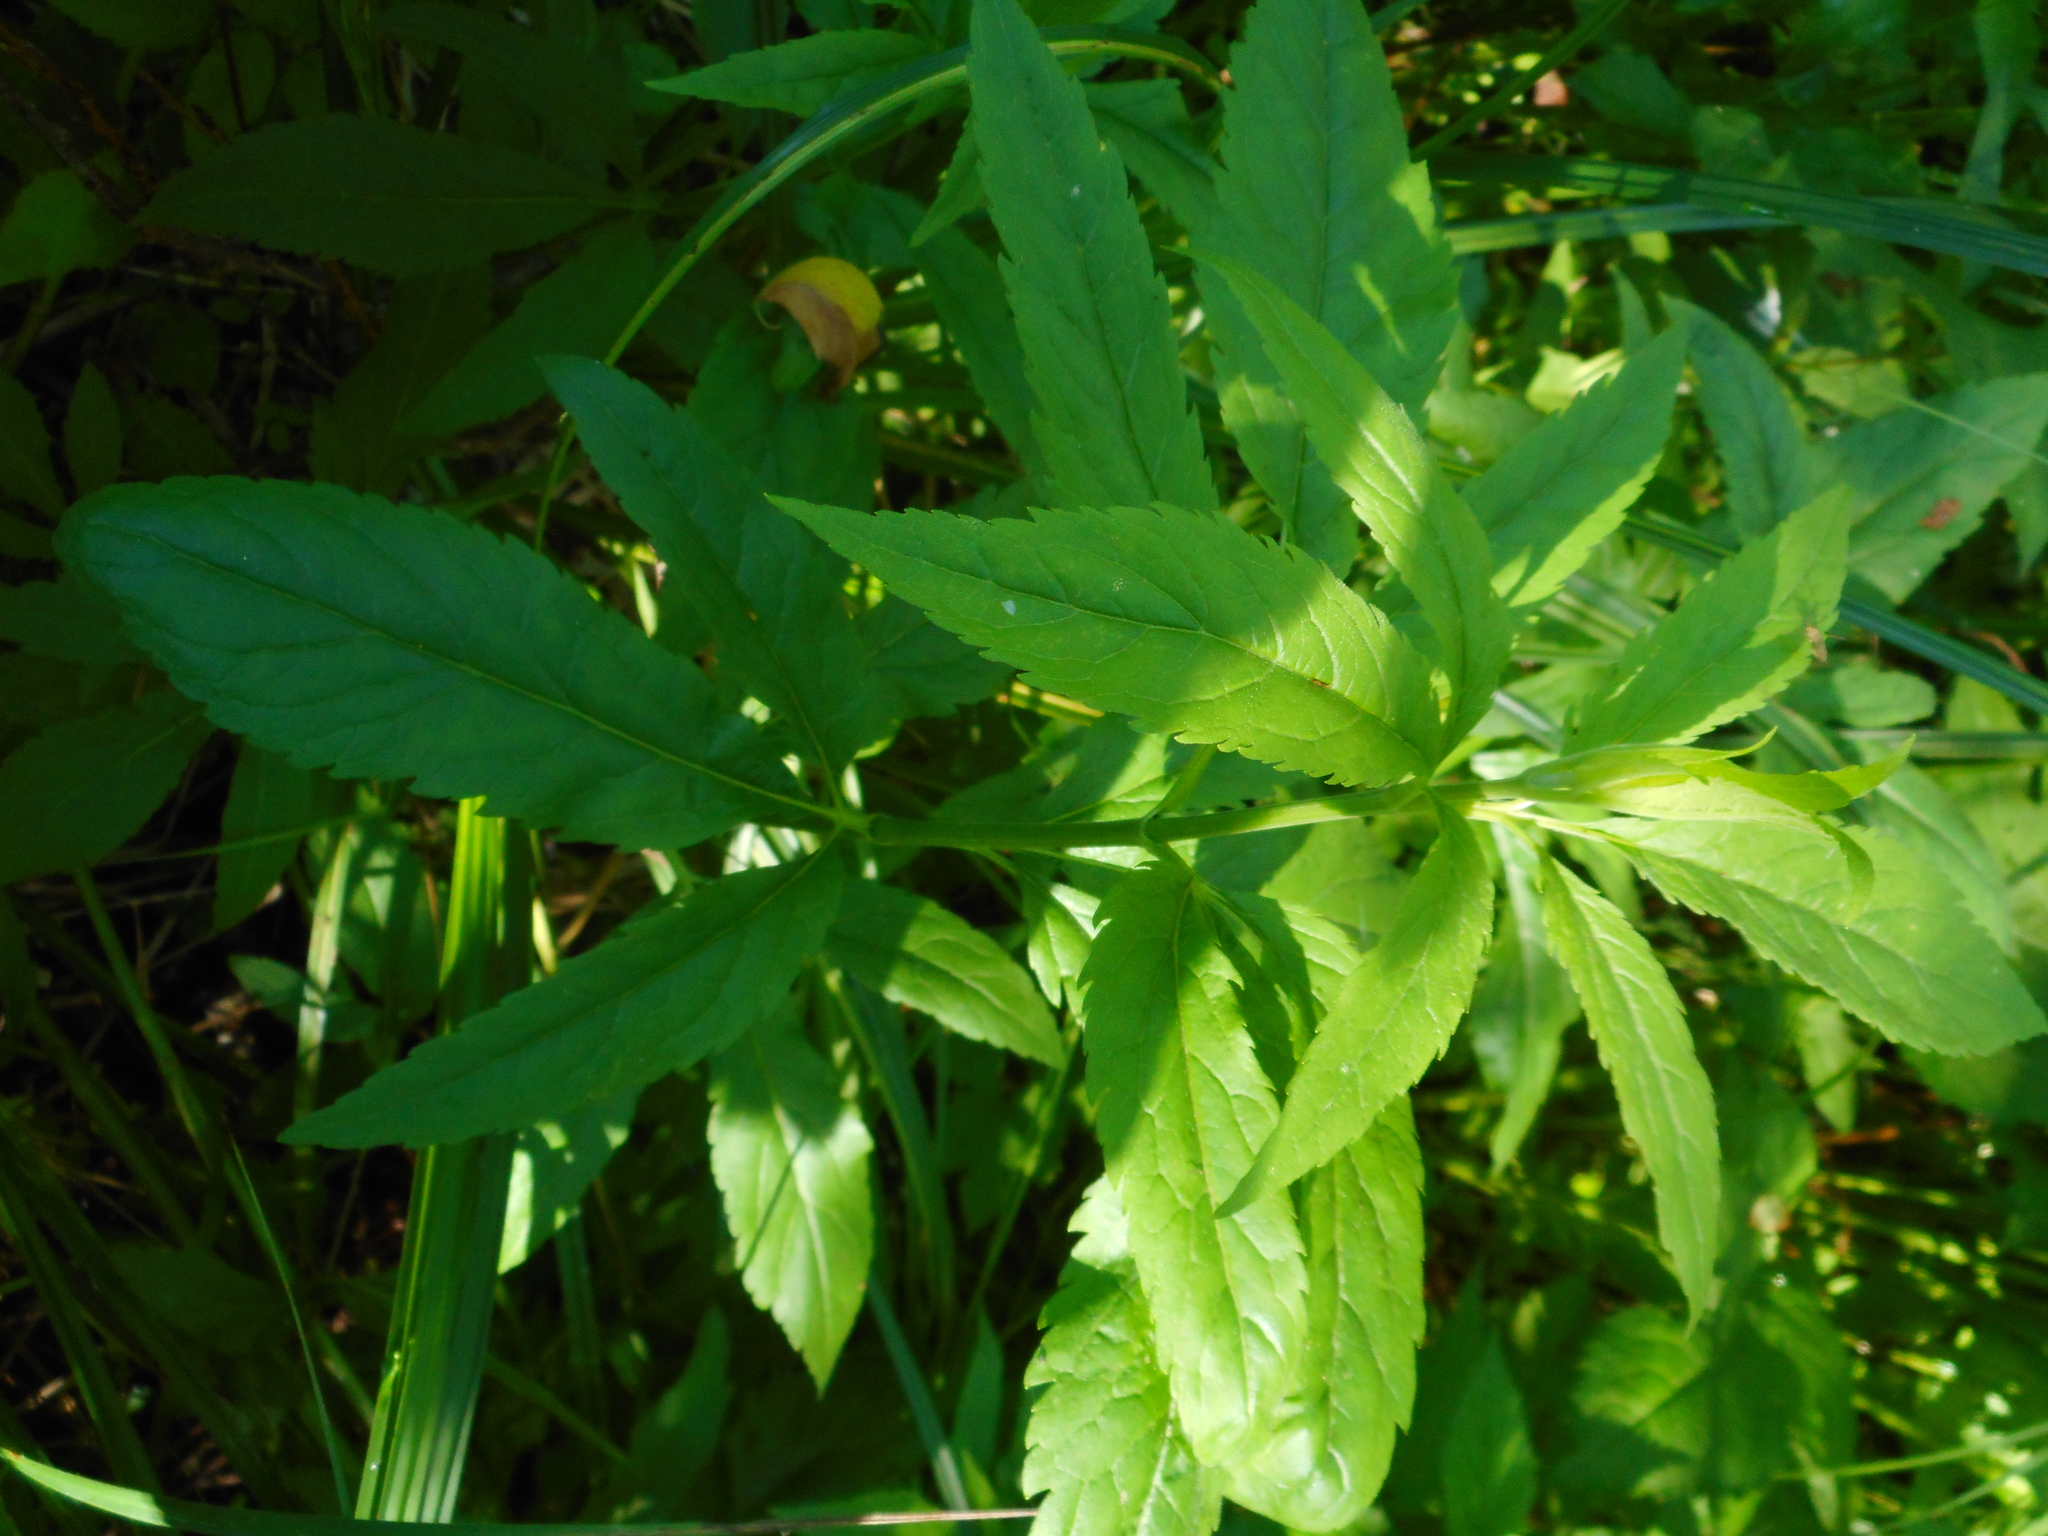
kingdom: Plantae
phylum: Tracheophyta
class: Magnoliopsida
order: Asterales
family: Asteraceae
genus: Eupatorium
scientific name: Eupatorium cannabinum
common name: Hemp-agrimony
